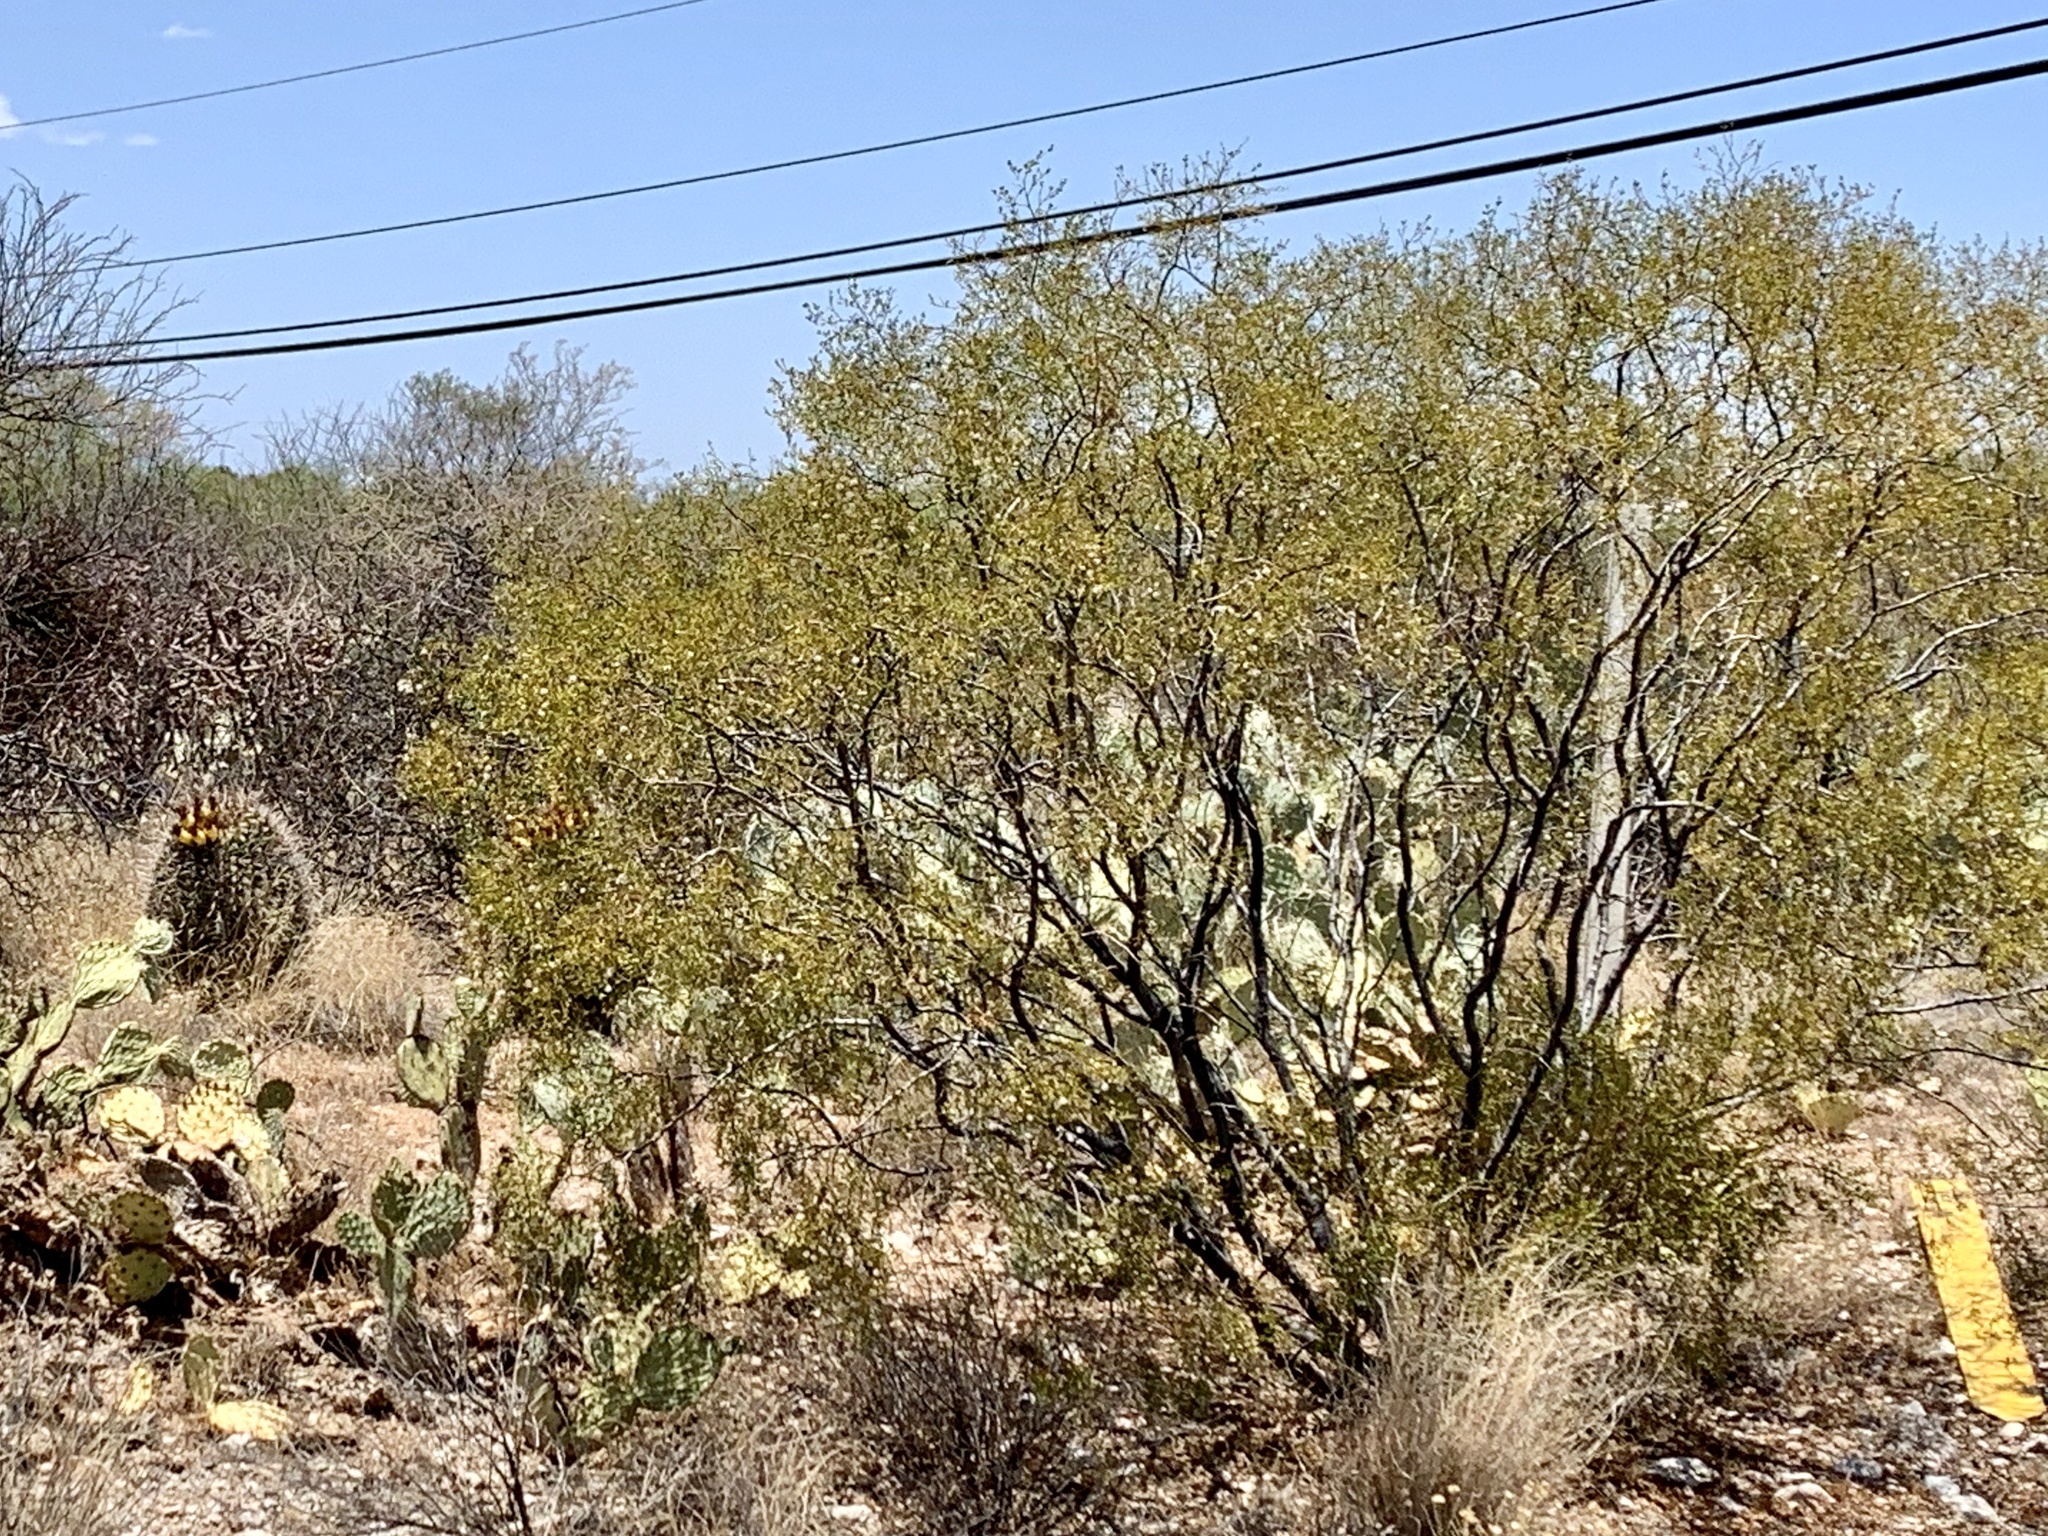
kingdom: Plantae
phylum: Tracheophyta
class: Magnoliopsida
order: Zygophyllales
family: Zygophyllaceae
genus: Larrea
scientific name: Larrea tridentata
